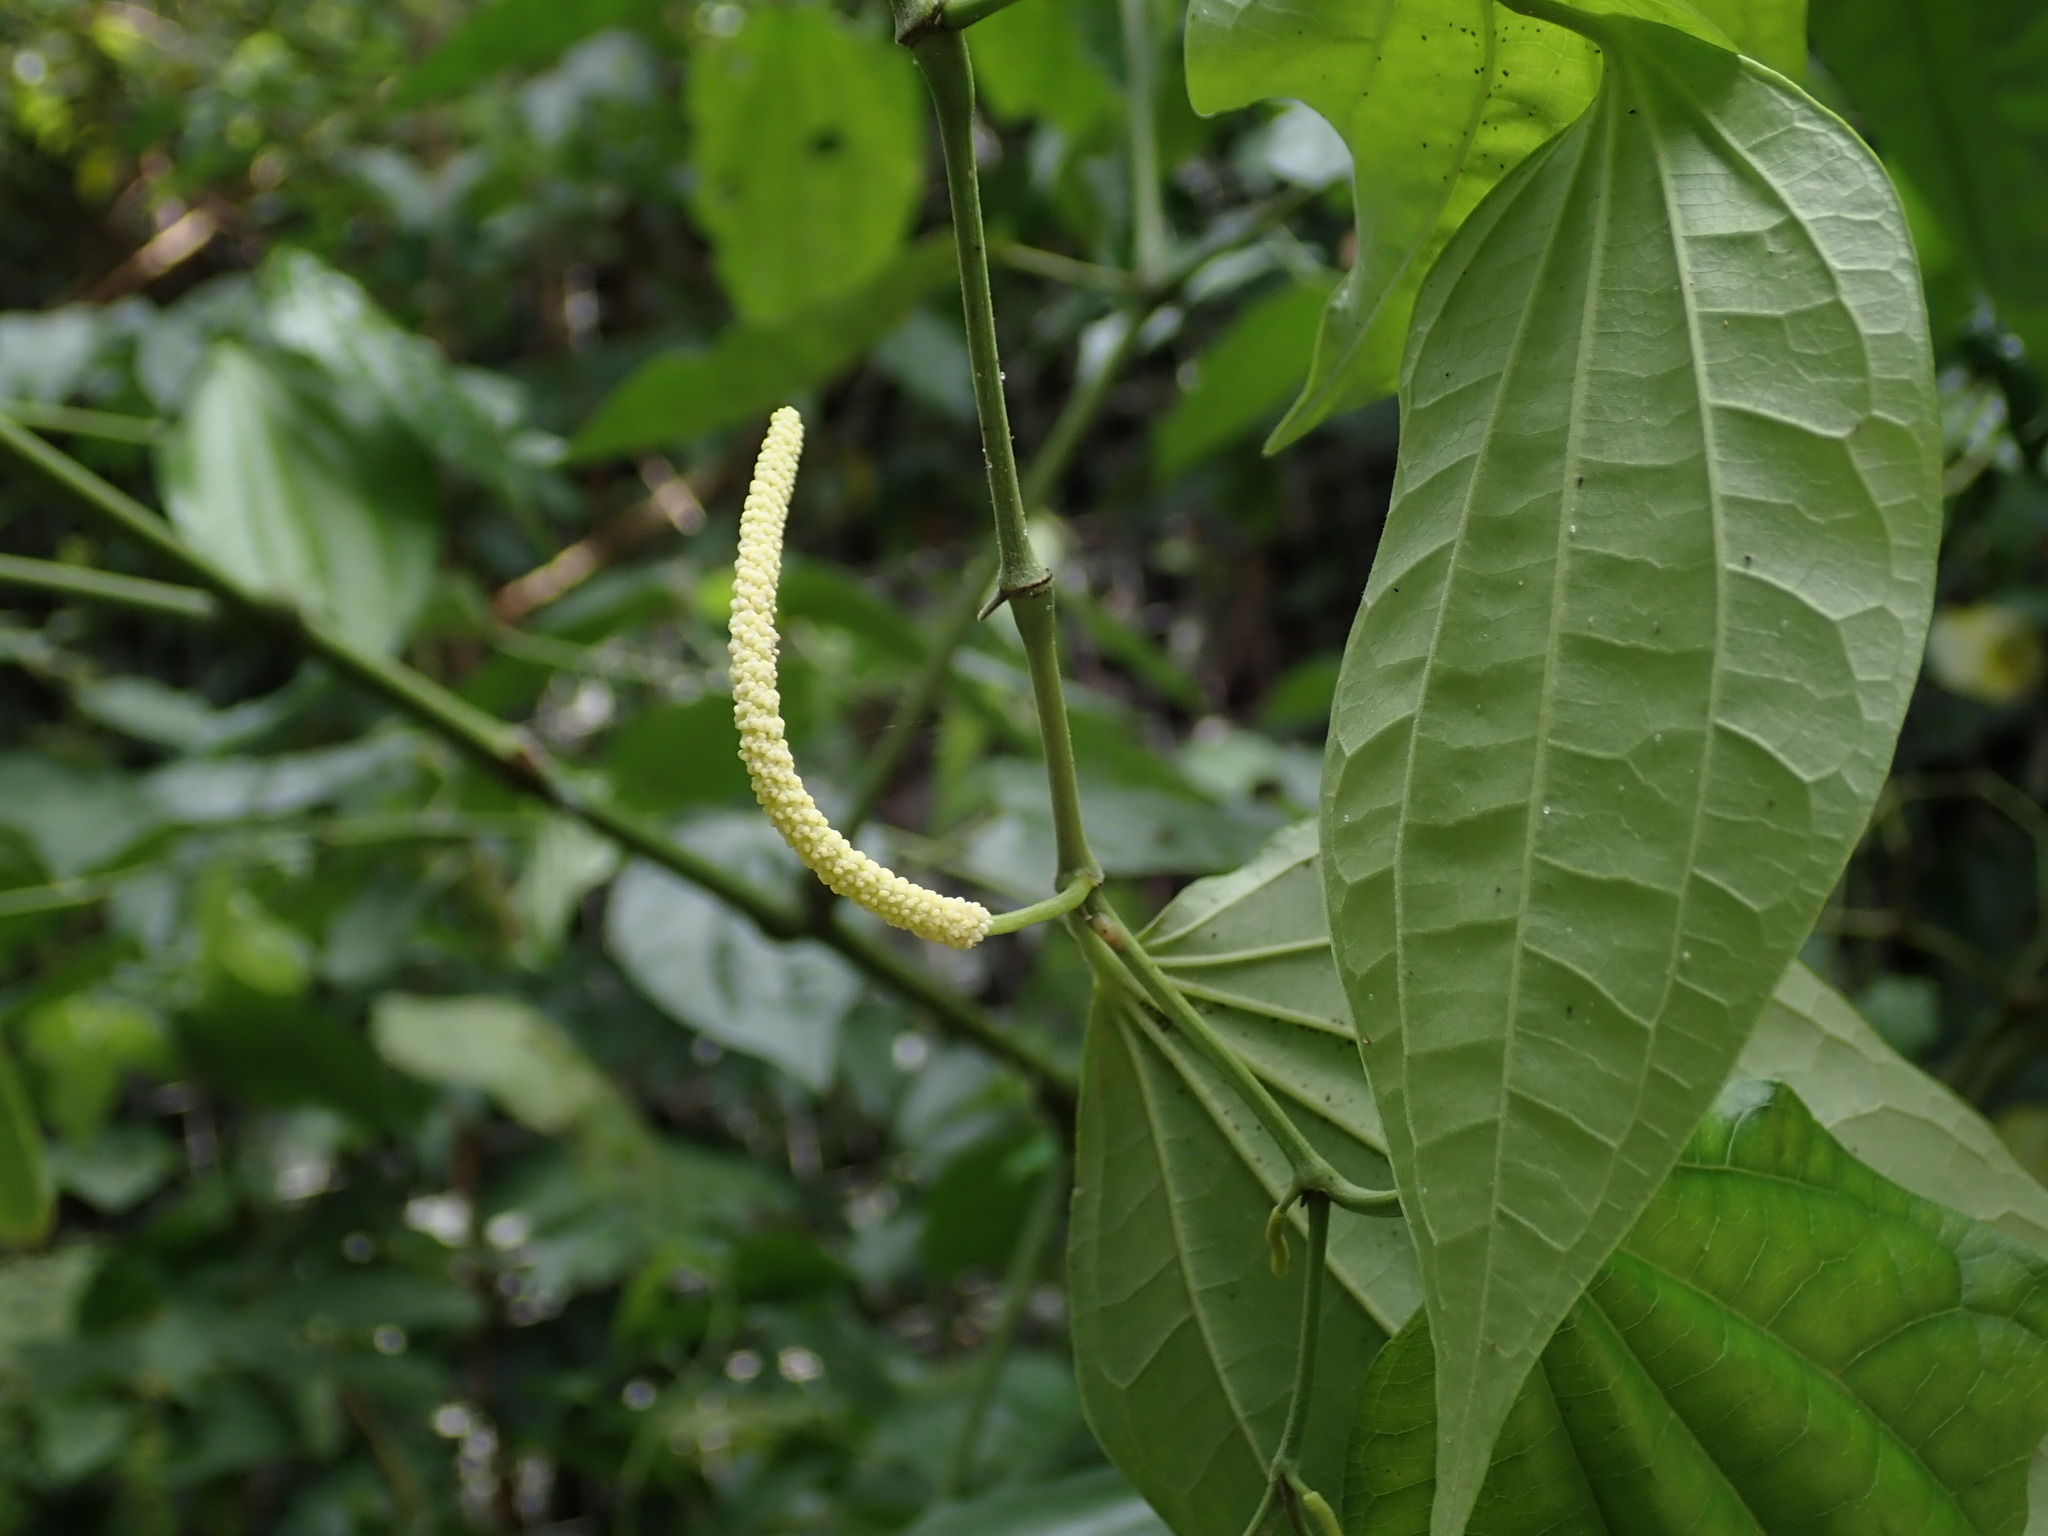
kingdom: Plantae
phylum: Tracheophyta
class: Magnoliopsida
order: Piperales
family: Piperaceae
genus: Piper
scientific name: Piper amalago
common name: Pepper-elder
